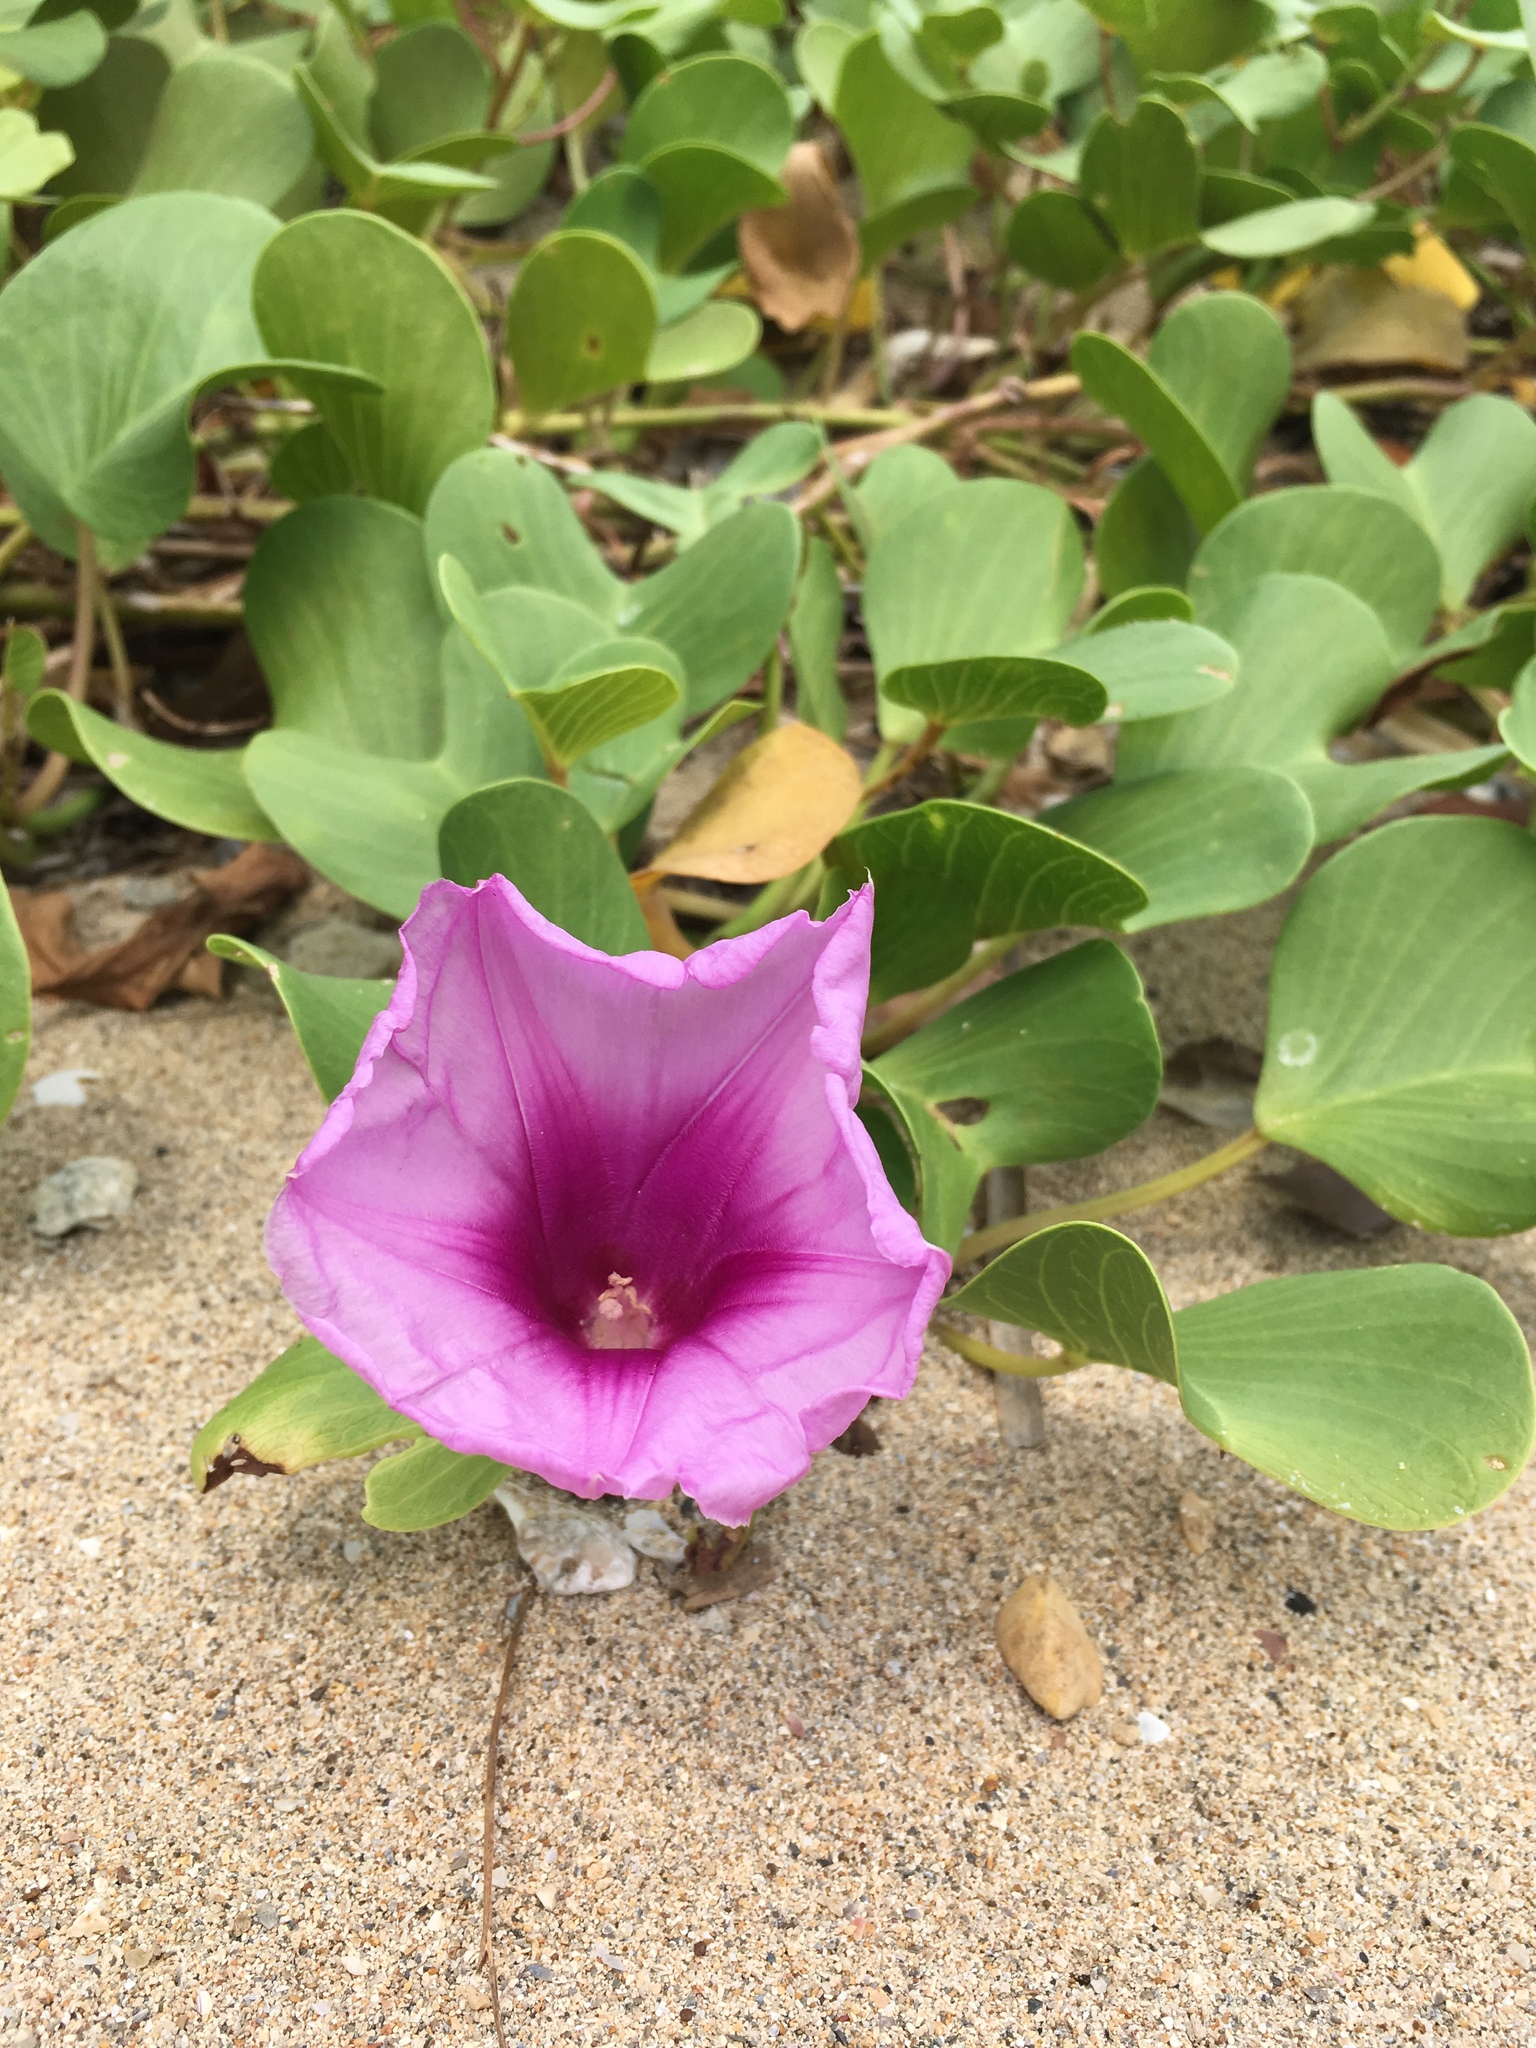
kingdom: Plantae
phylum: Tracheophyta
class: Magnoliopsida
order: Solanales
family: Convolvulaceae
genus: Ipomoea
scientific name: Ipomoea pes-caprae
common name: Beach morning glory
